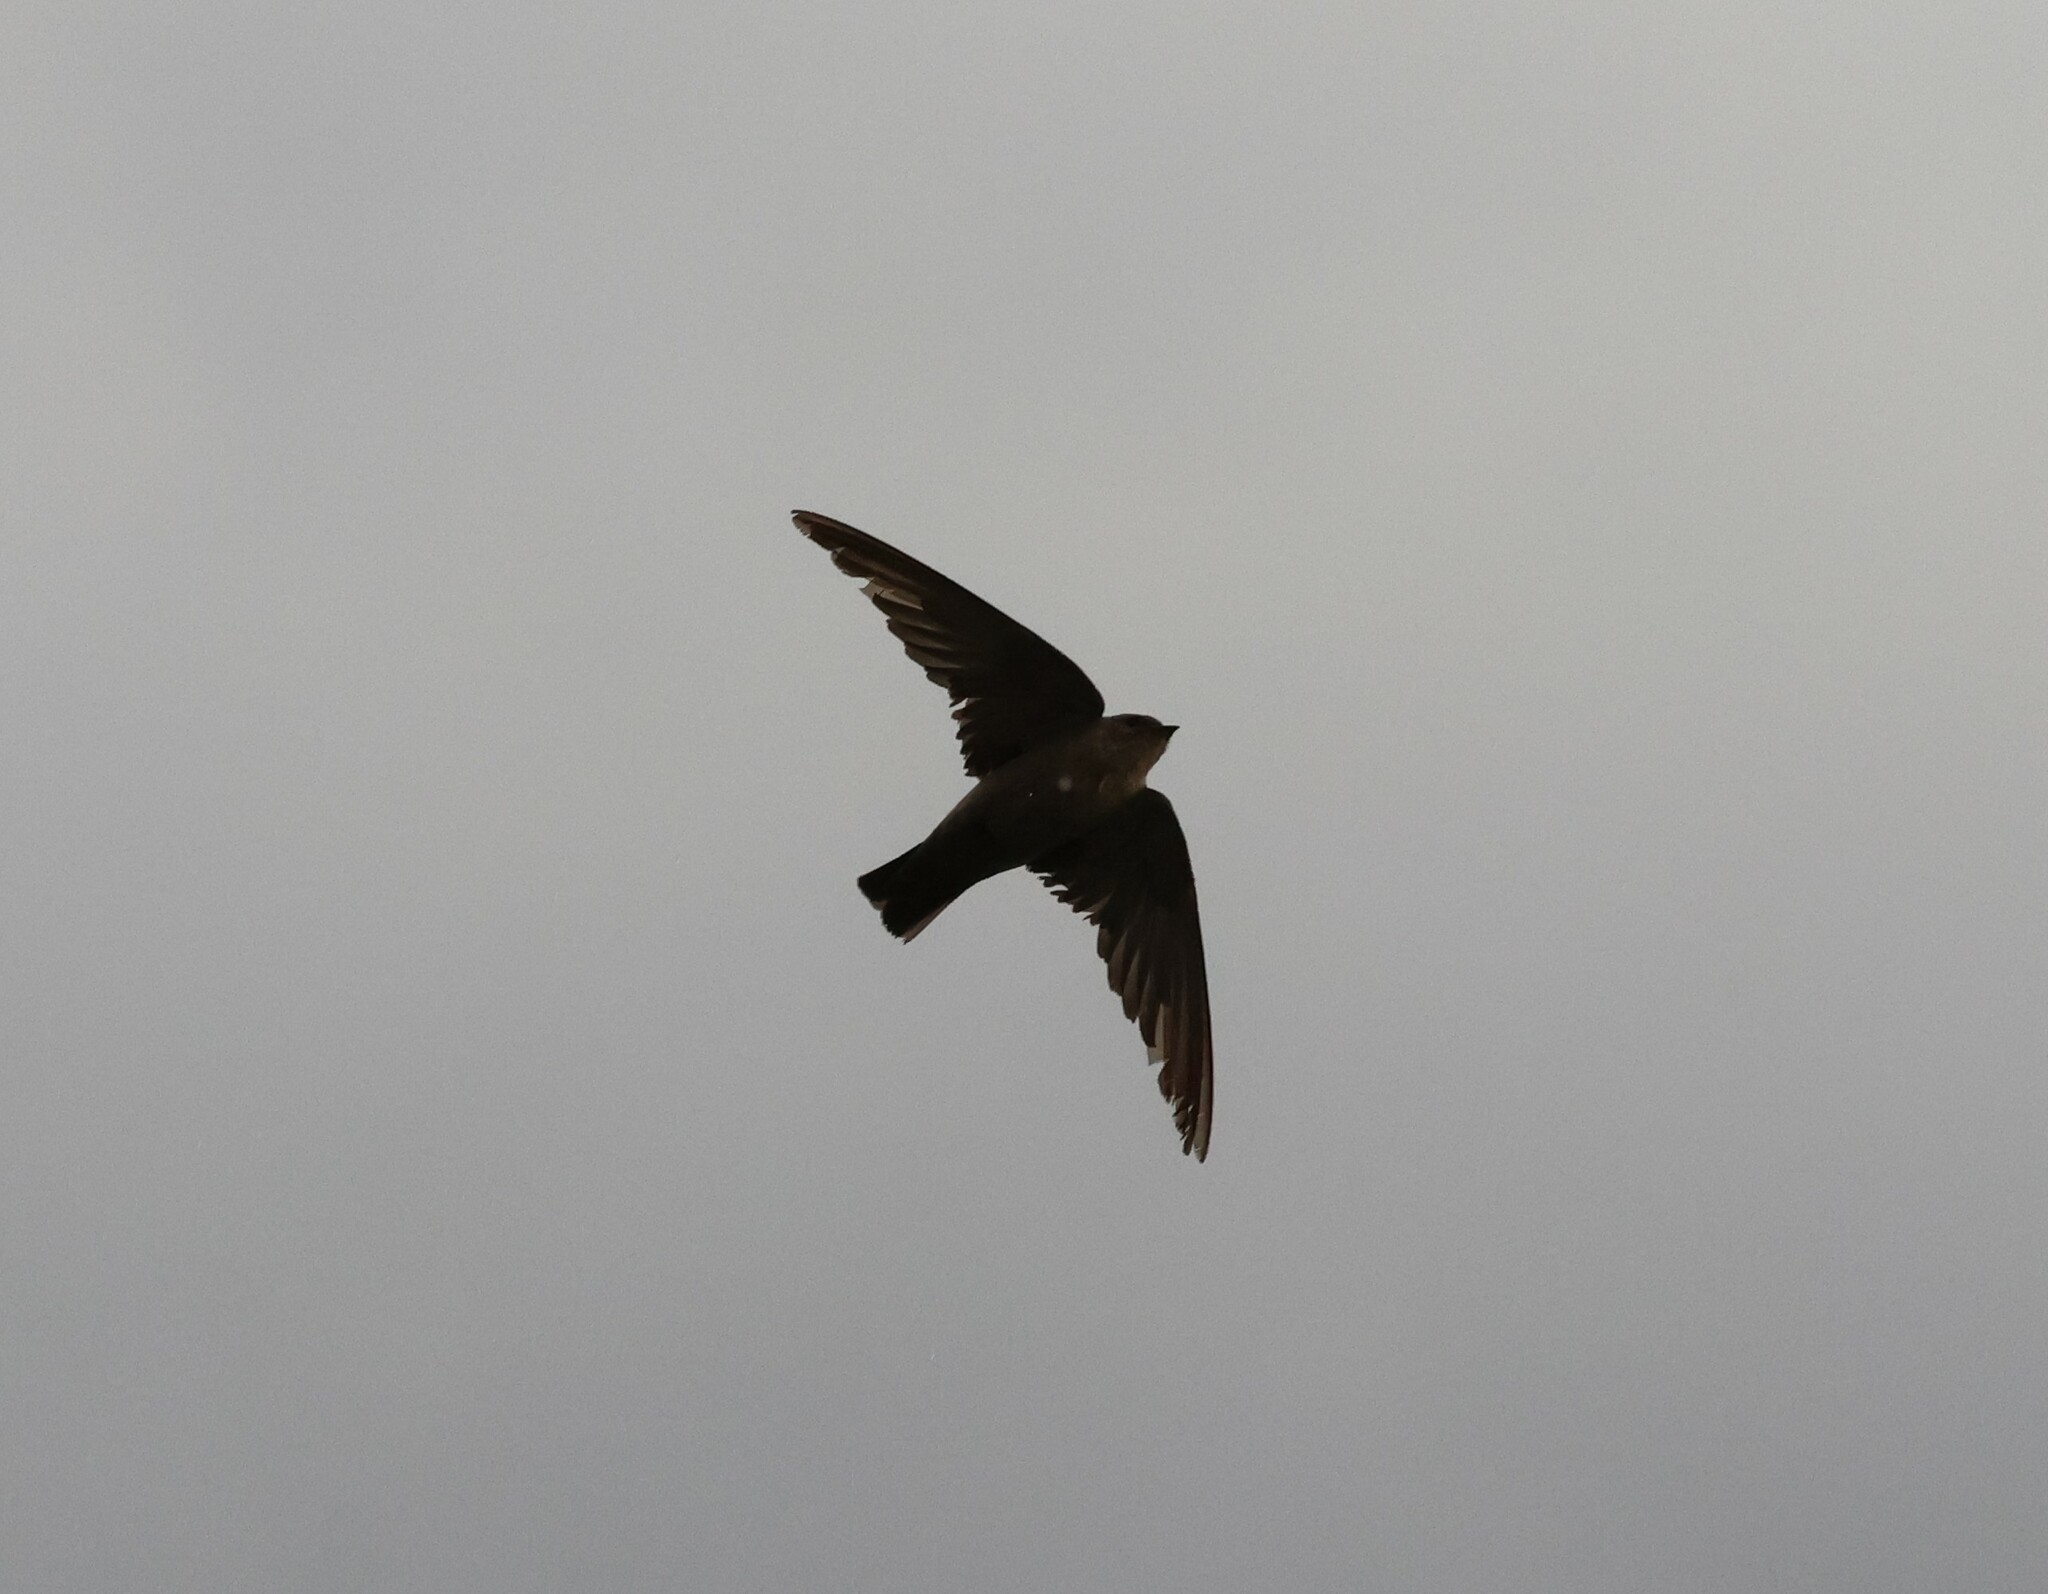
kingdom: Animalia
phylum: Chordata
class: Aves
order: Passeriformes
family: Hirundinidae
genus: Ptyonoprogne
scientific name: Ptyonoprogne fuligula
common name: Rock martin
